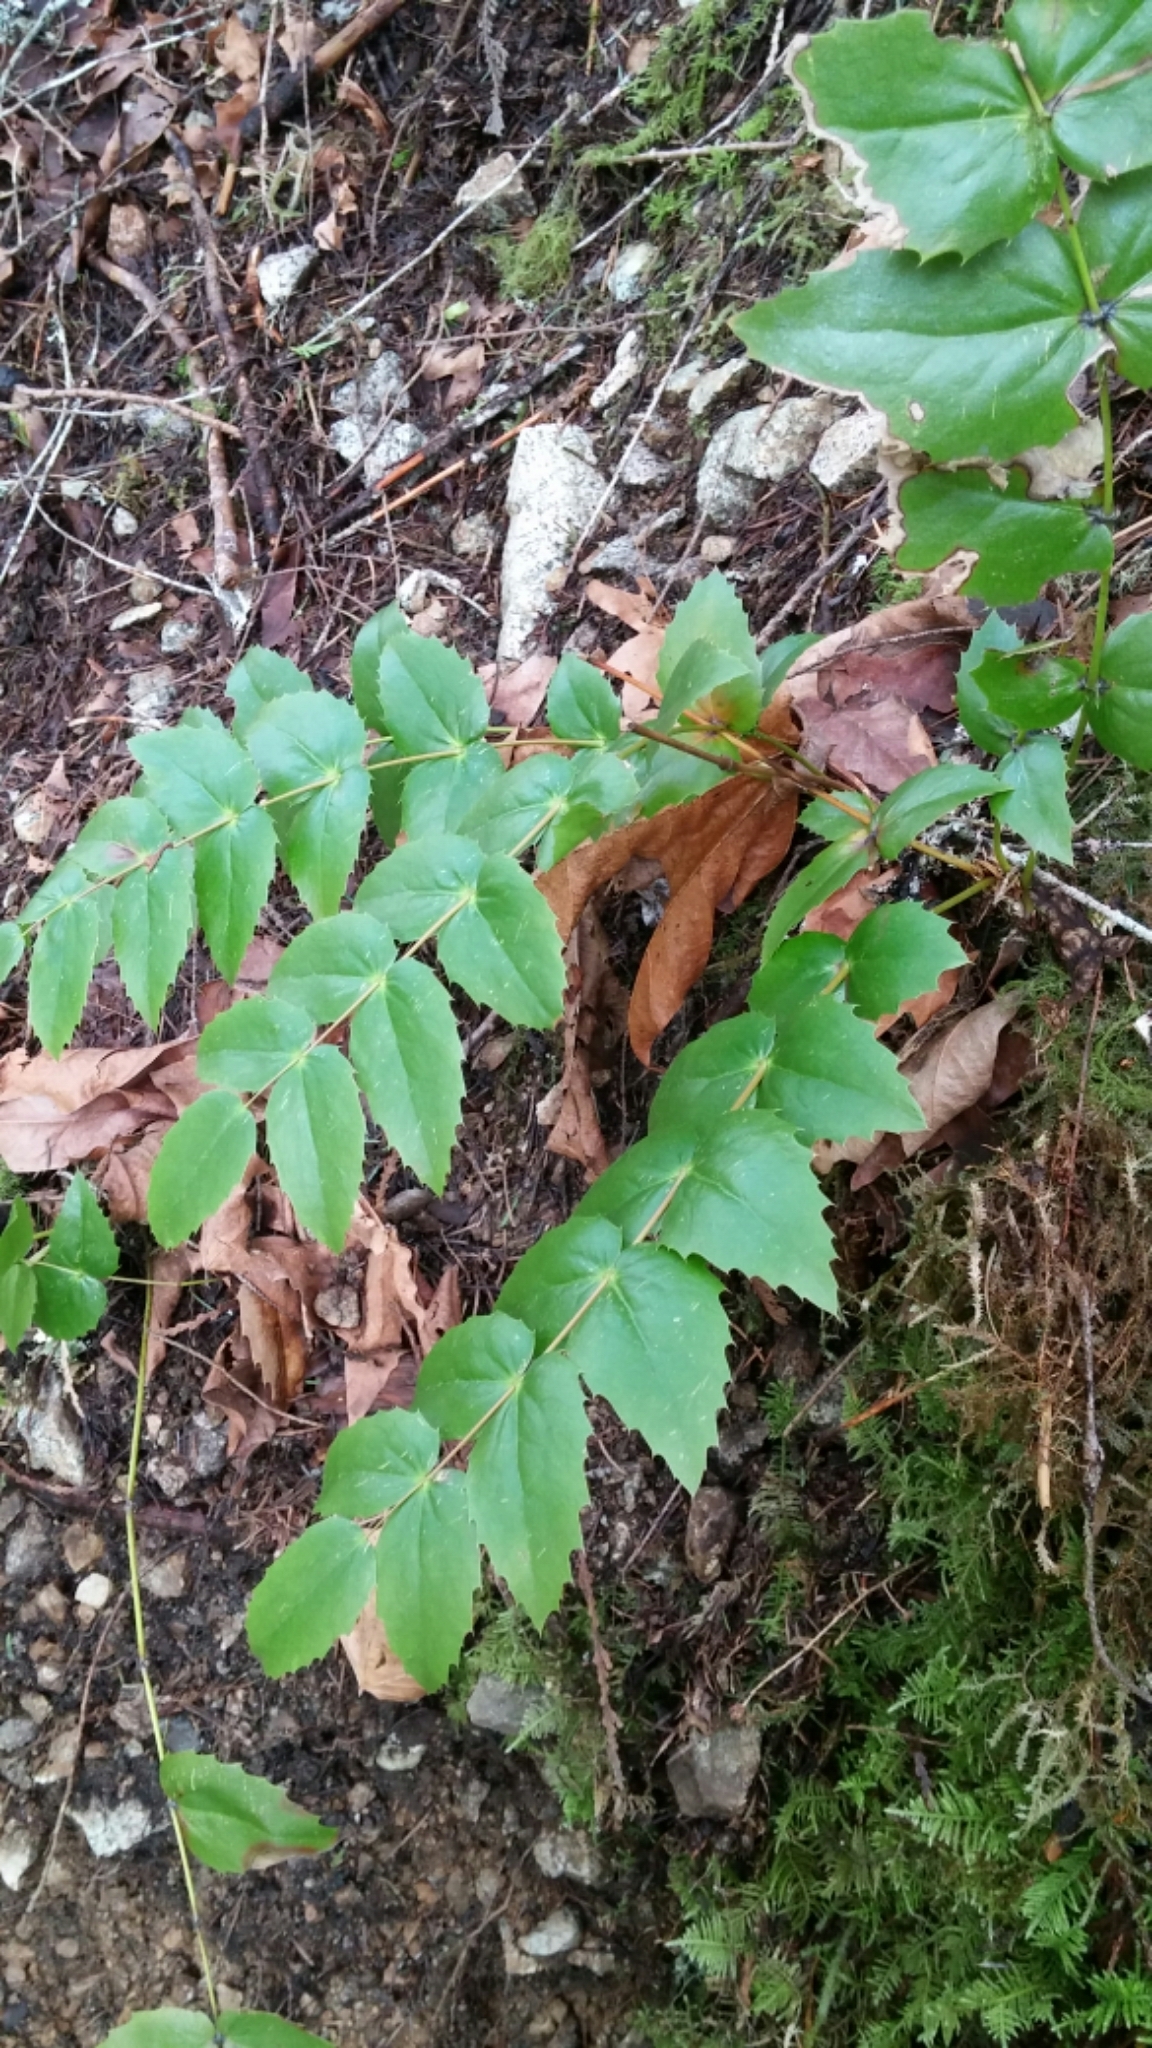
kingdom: Plantae
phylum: Tracheophyta
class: Magnoliopsida
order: Ranunculales
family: Berberidaceae
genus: Mahonia
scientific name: Mahonia nervosa
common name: Cascade oregon-grape
